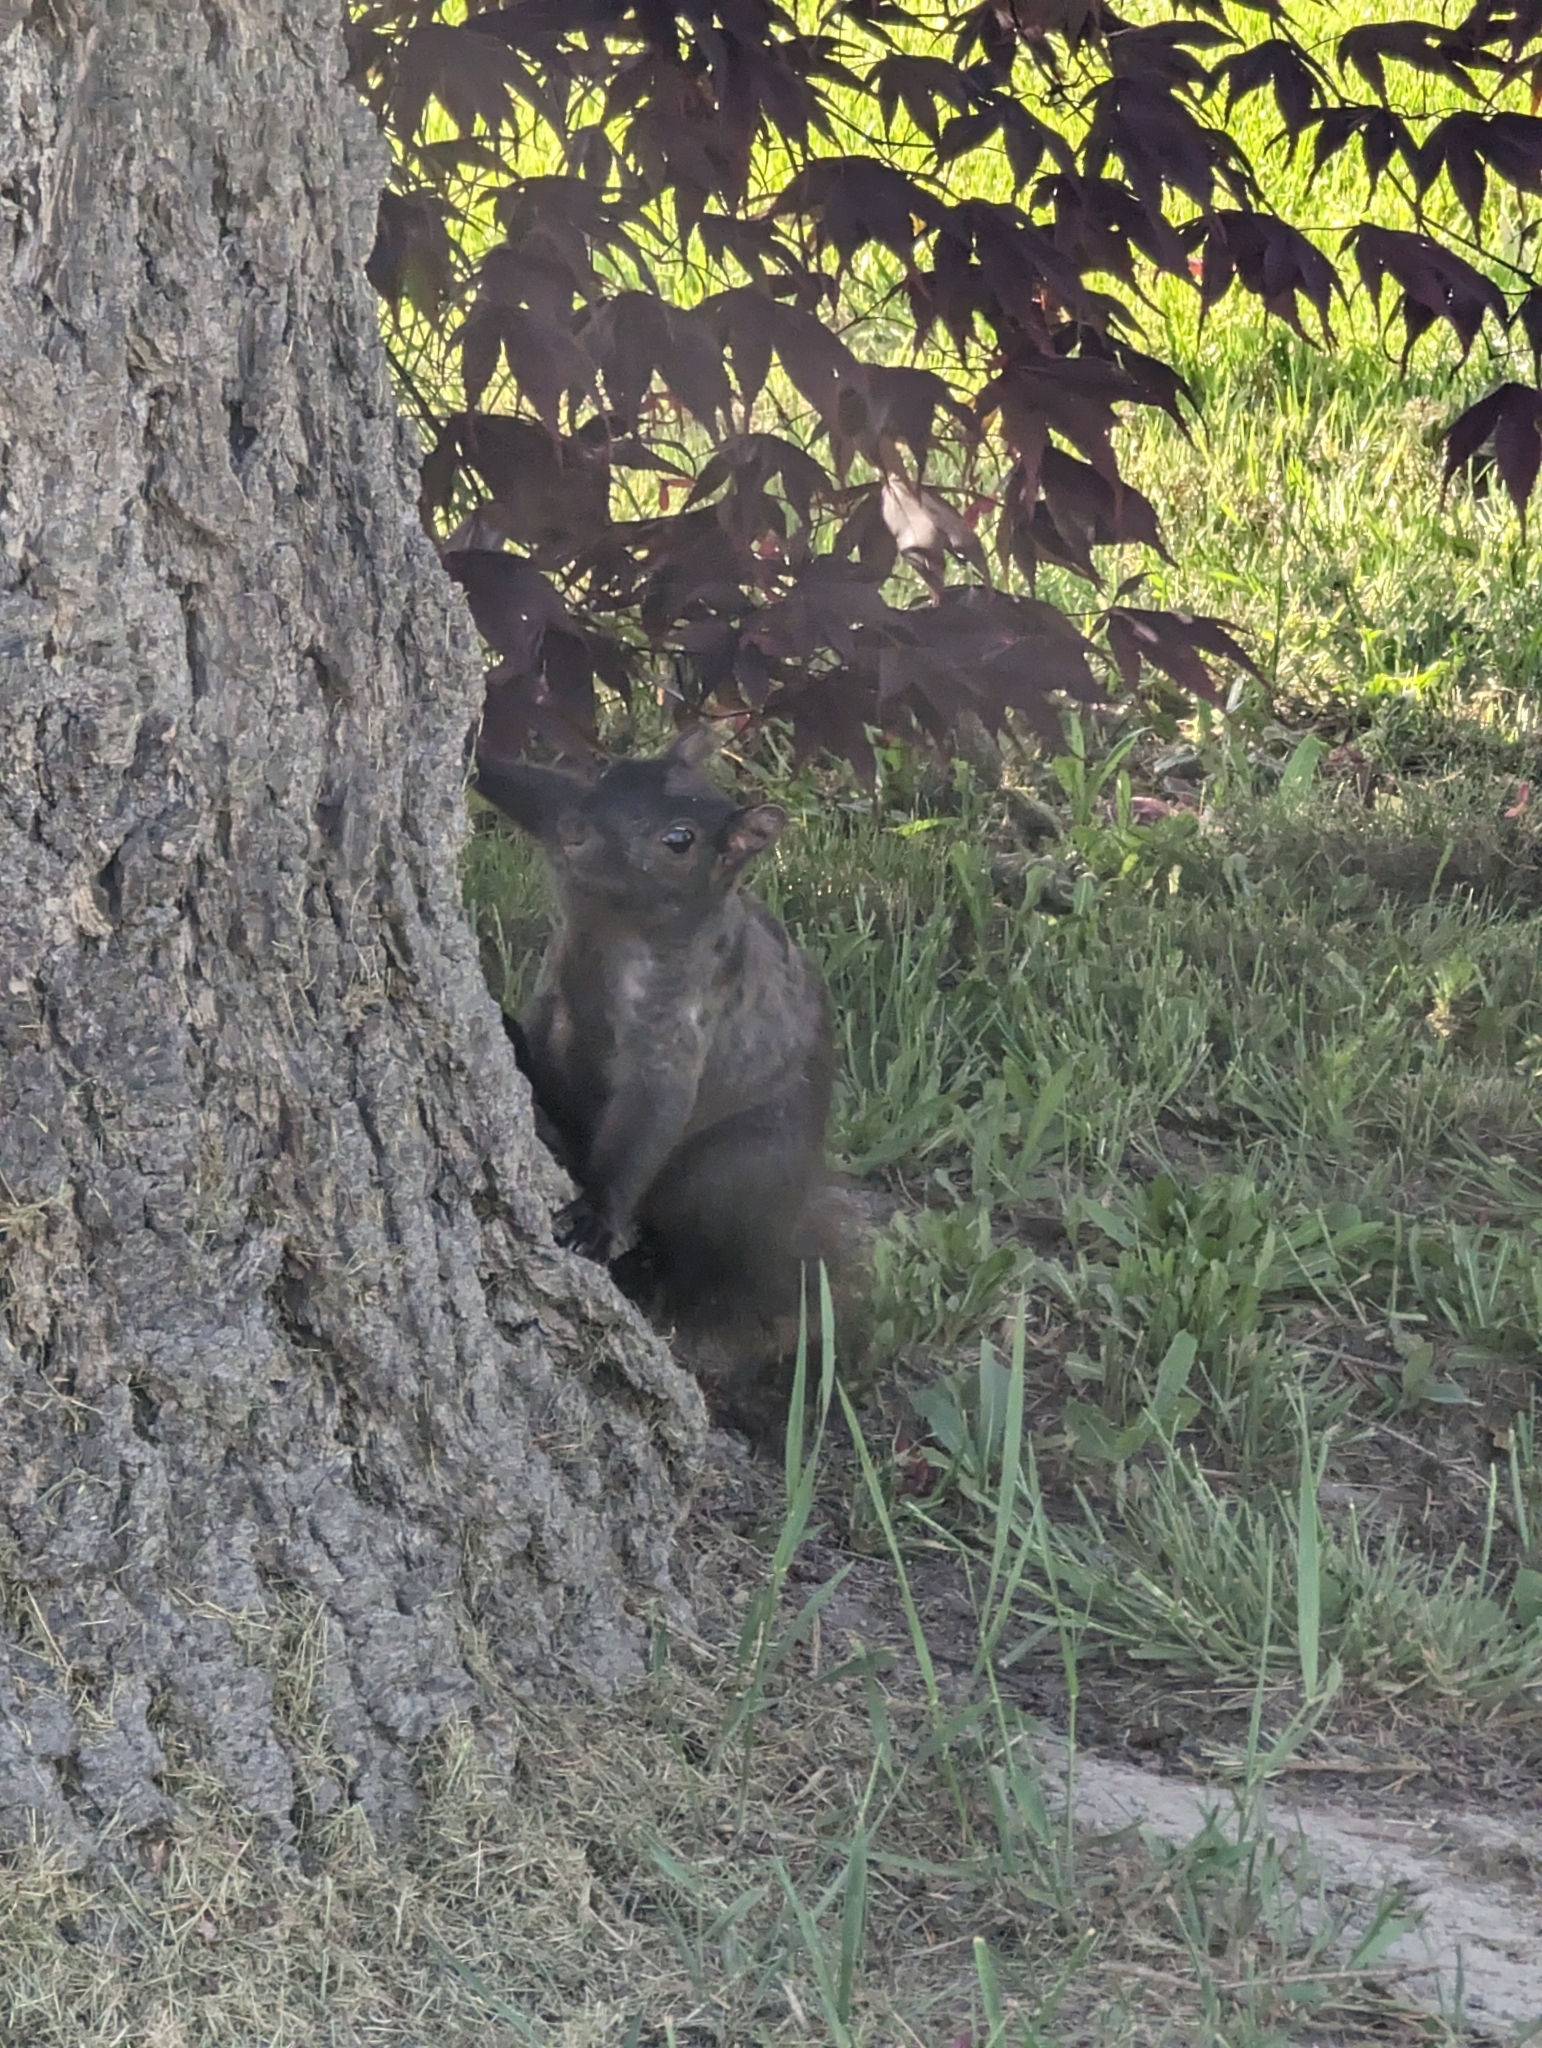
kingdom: Animalia
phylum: Chordata
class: Mammalia
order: Rodentia
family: Sciuridae
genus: Sciurus
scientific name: Sciurus carolinensis
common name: Eastern gray squirrel
